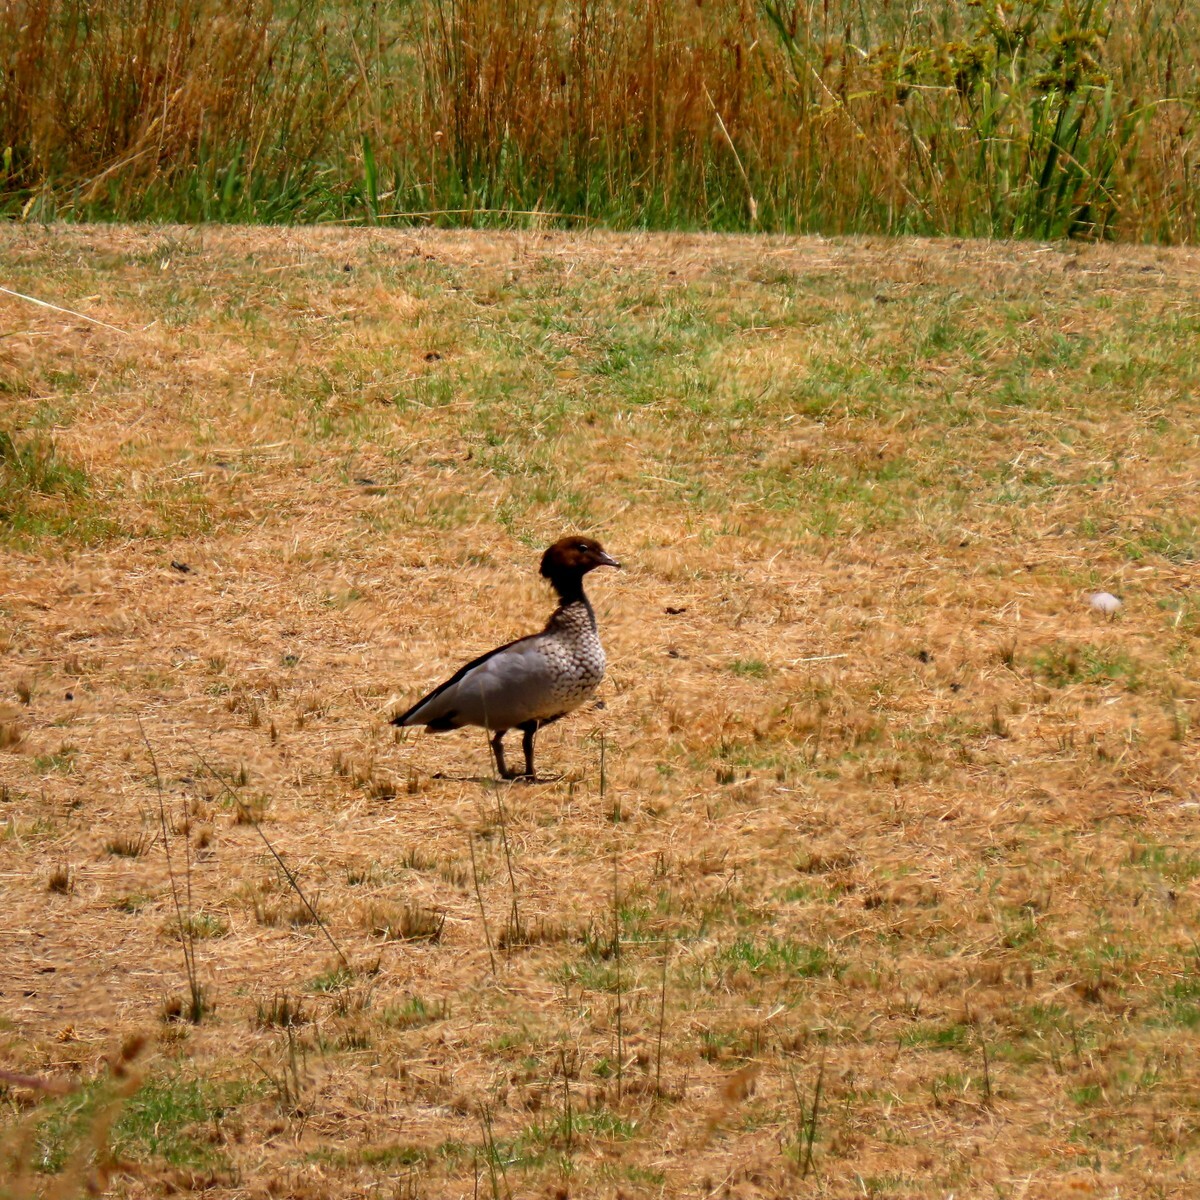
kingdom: Animalia
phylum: Chordata
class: Aves
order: Anseriformes
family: Anatidae
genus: Chenonetta
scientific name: Chenonetta jubata
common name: Maned duck
